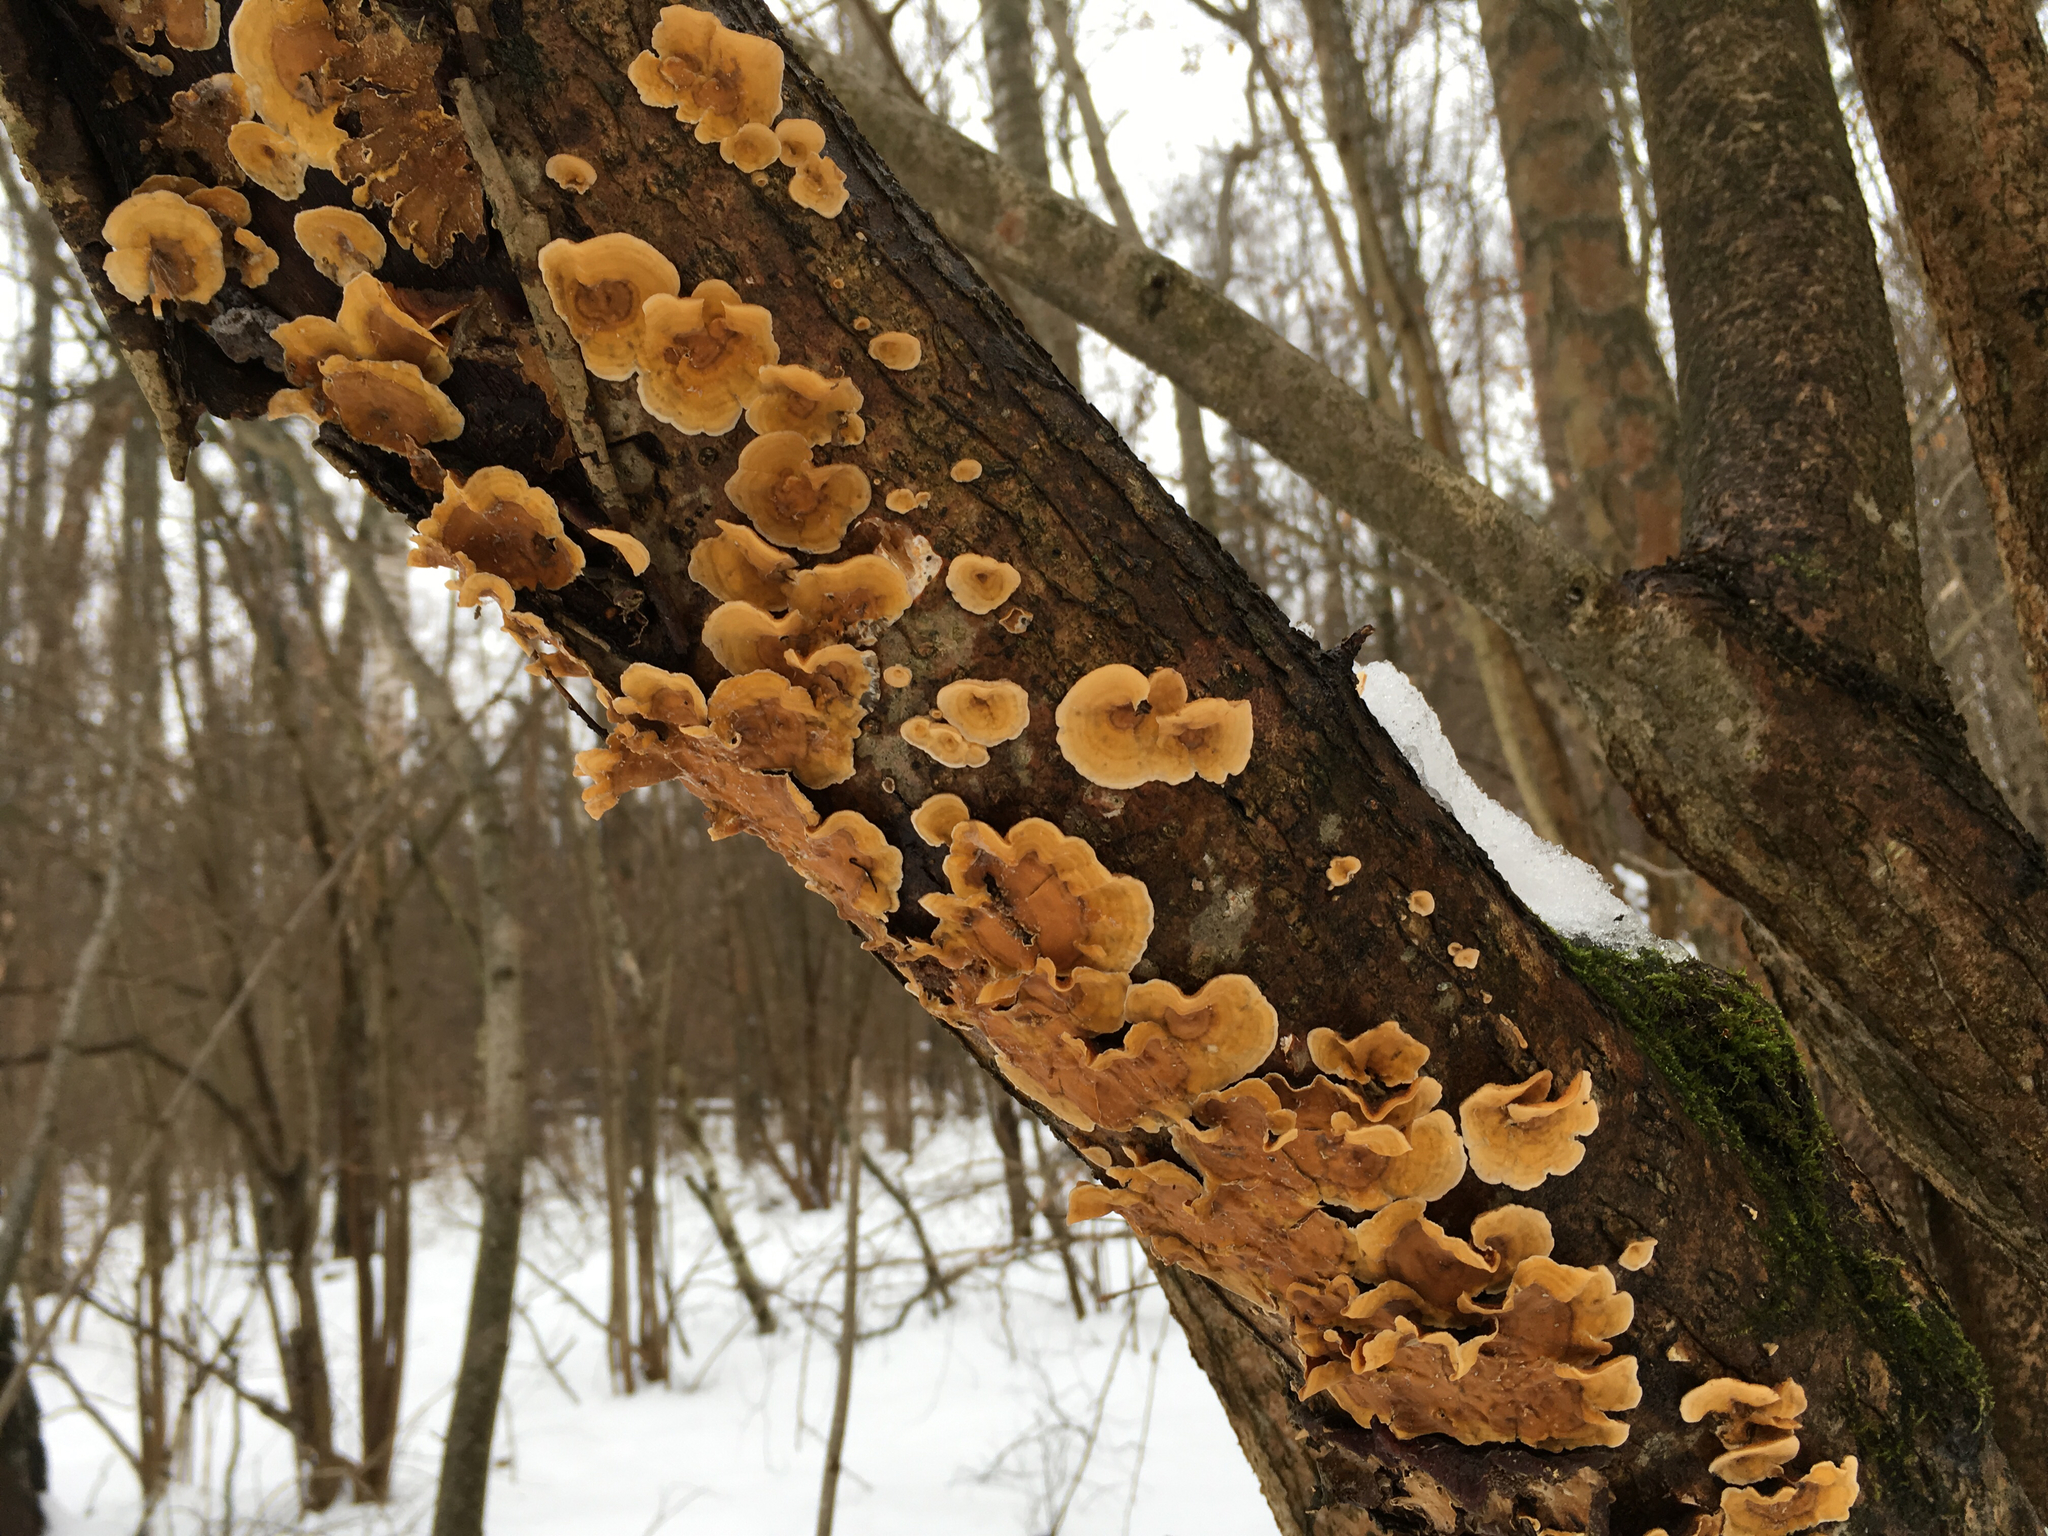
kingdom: Fungi
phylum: Basidiomycota
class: Agaricomycetes
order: Russulales
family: Stereaceae
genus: Stereum
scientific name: Stereum hirsutum
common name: Hairy curtain crust
